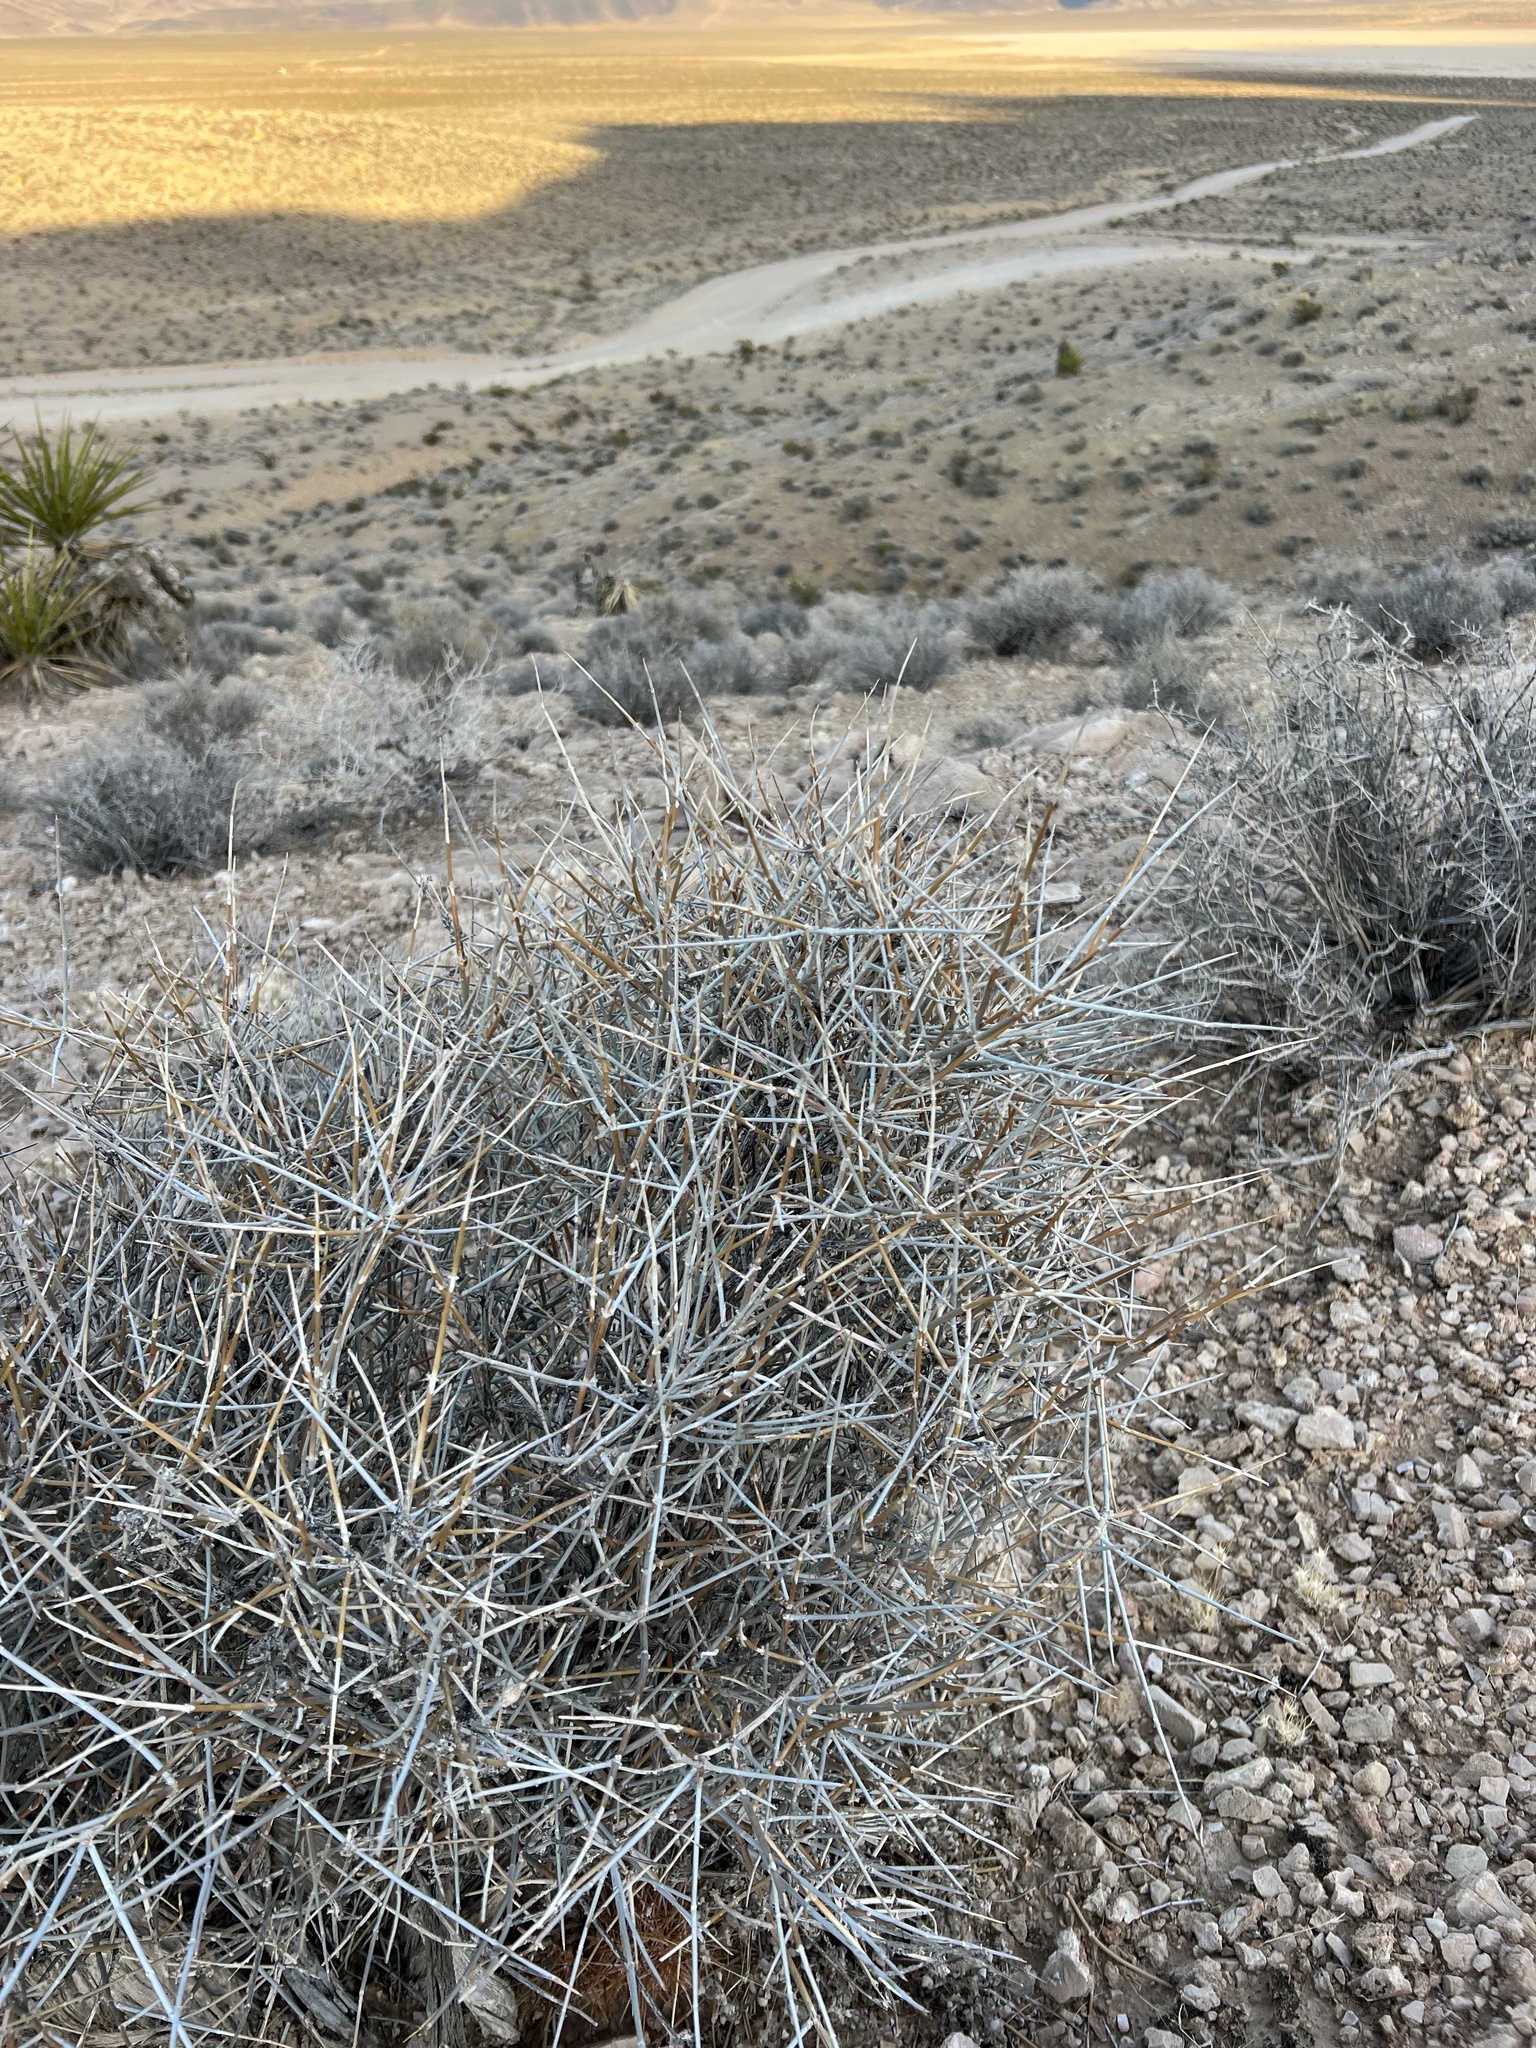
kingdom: Plantae
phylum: Tracheophyta
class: Gnetopsida
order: Ephedrales
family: Ephedraceae
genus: Ephedra
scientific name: Ephedra nevadensis
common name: Gray ephedra
